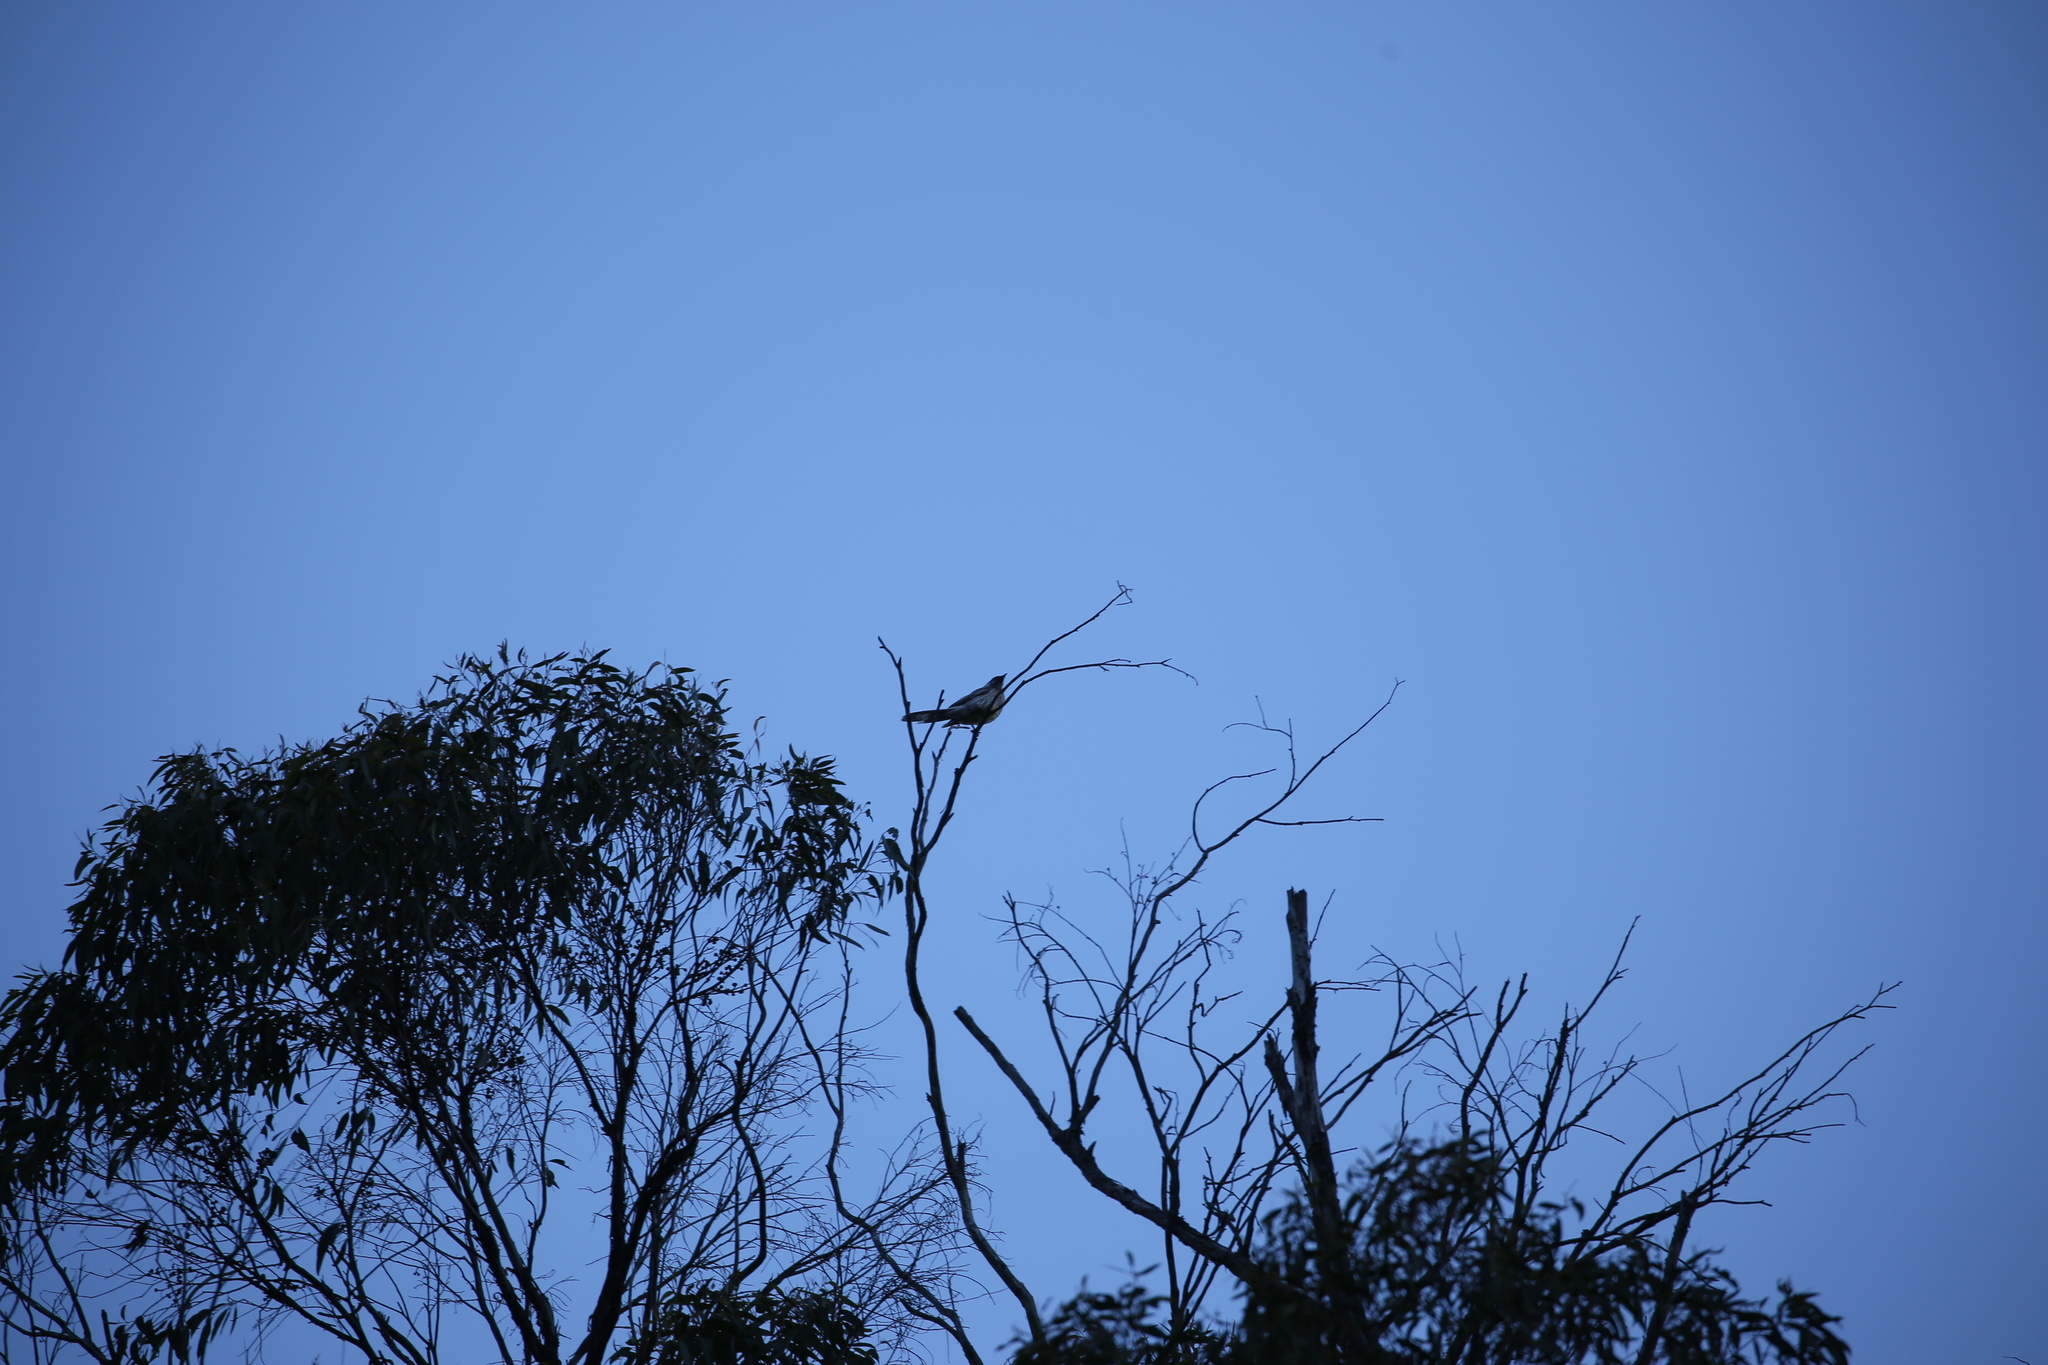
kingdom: Animalia
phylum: Chordata
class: Aves
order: Passeriformes
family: Meliphagidae
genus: Anthochaera
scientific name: Anthochaera carunculata
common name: Red wattlebird
